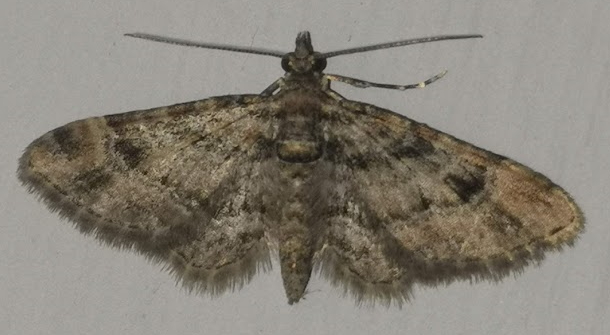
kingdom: Animalia
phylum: Arthropoda
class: Insecta
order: Lepidoptera
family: Geometridae
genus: Gymnoscelis
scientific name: Gymnoscelis rufifasciata
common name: Double-striped pug
